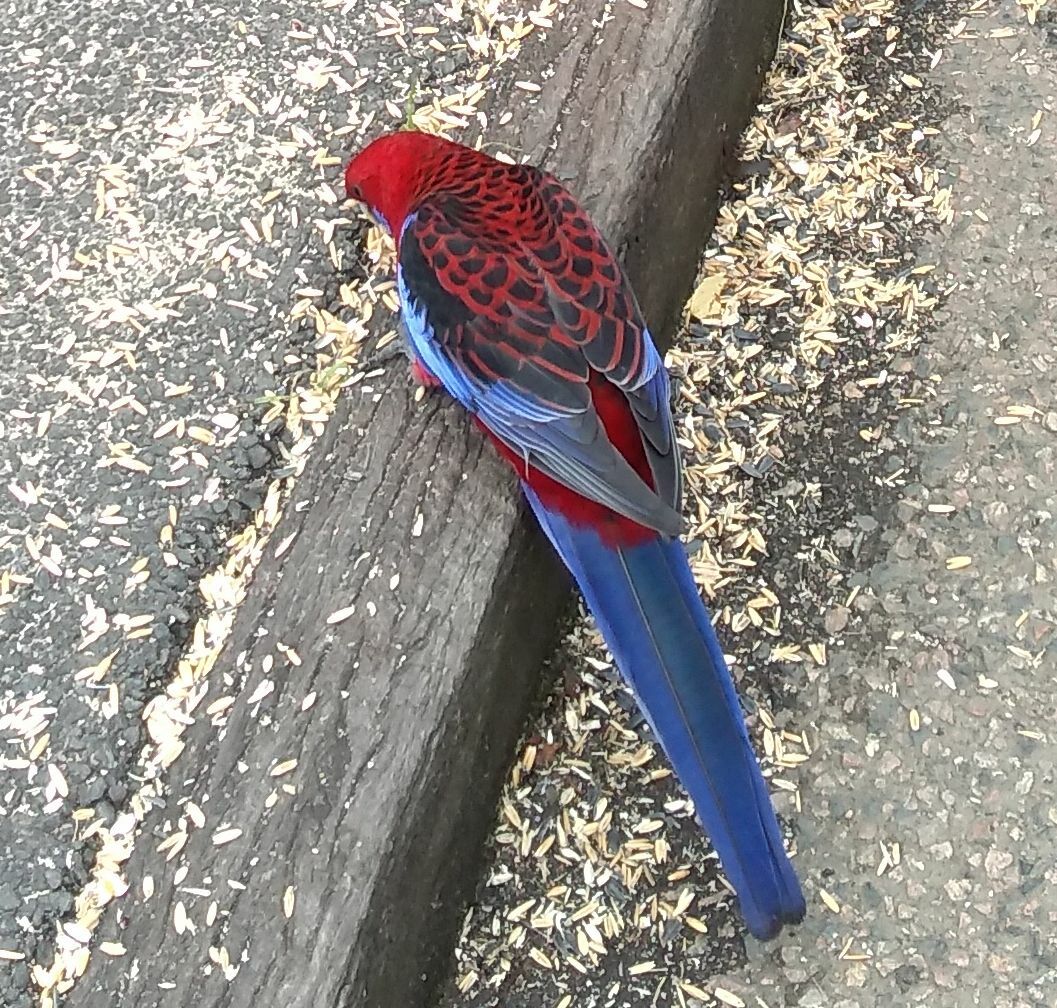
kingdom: Animalia
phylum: Chordata
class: Aves
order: Psittaciformes
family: Psittacidae
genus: Platycercus
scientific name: Platycercus elegans
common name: Crimson rosella
